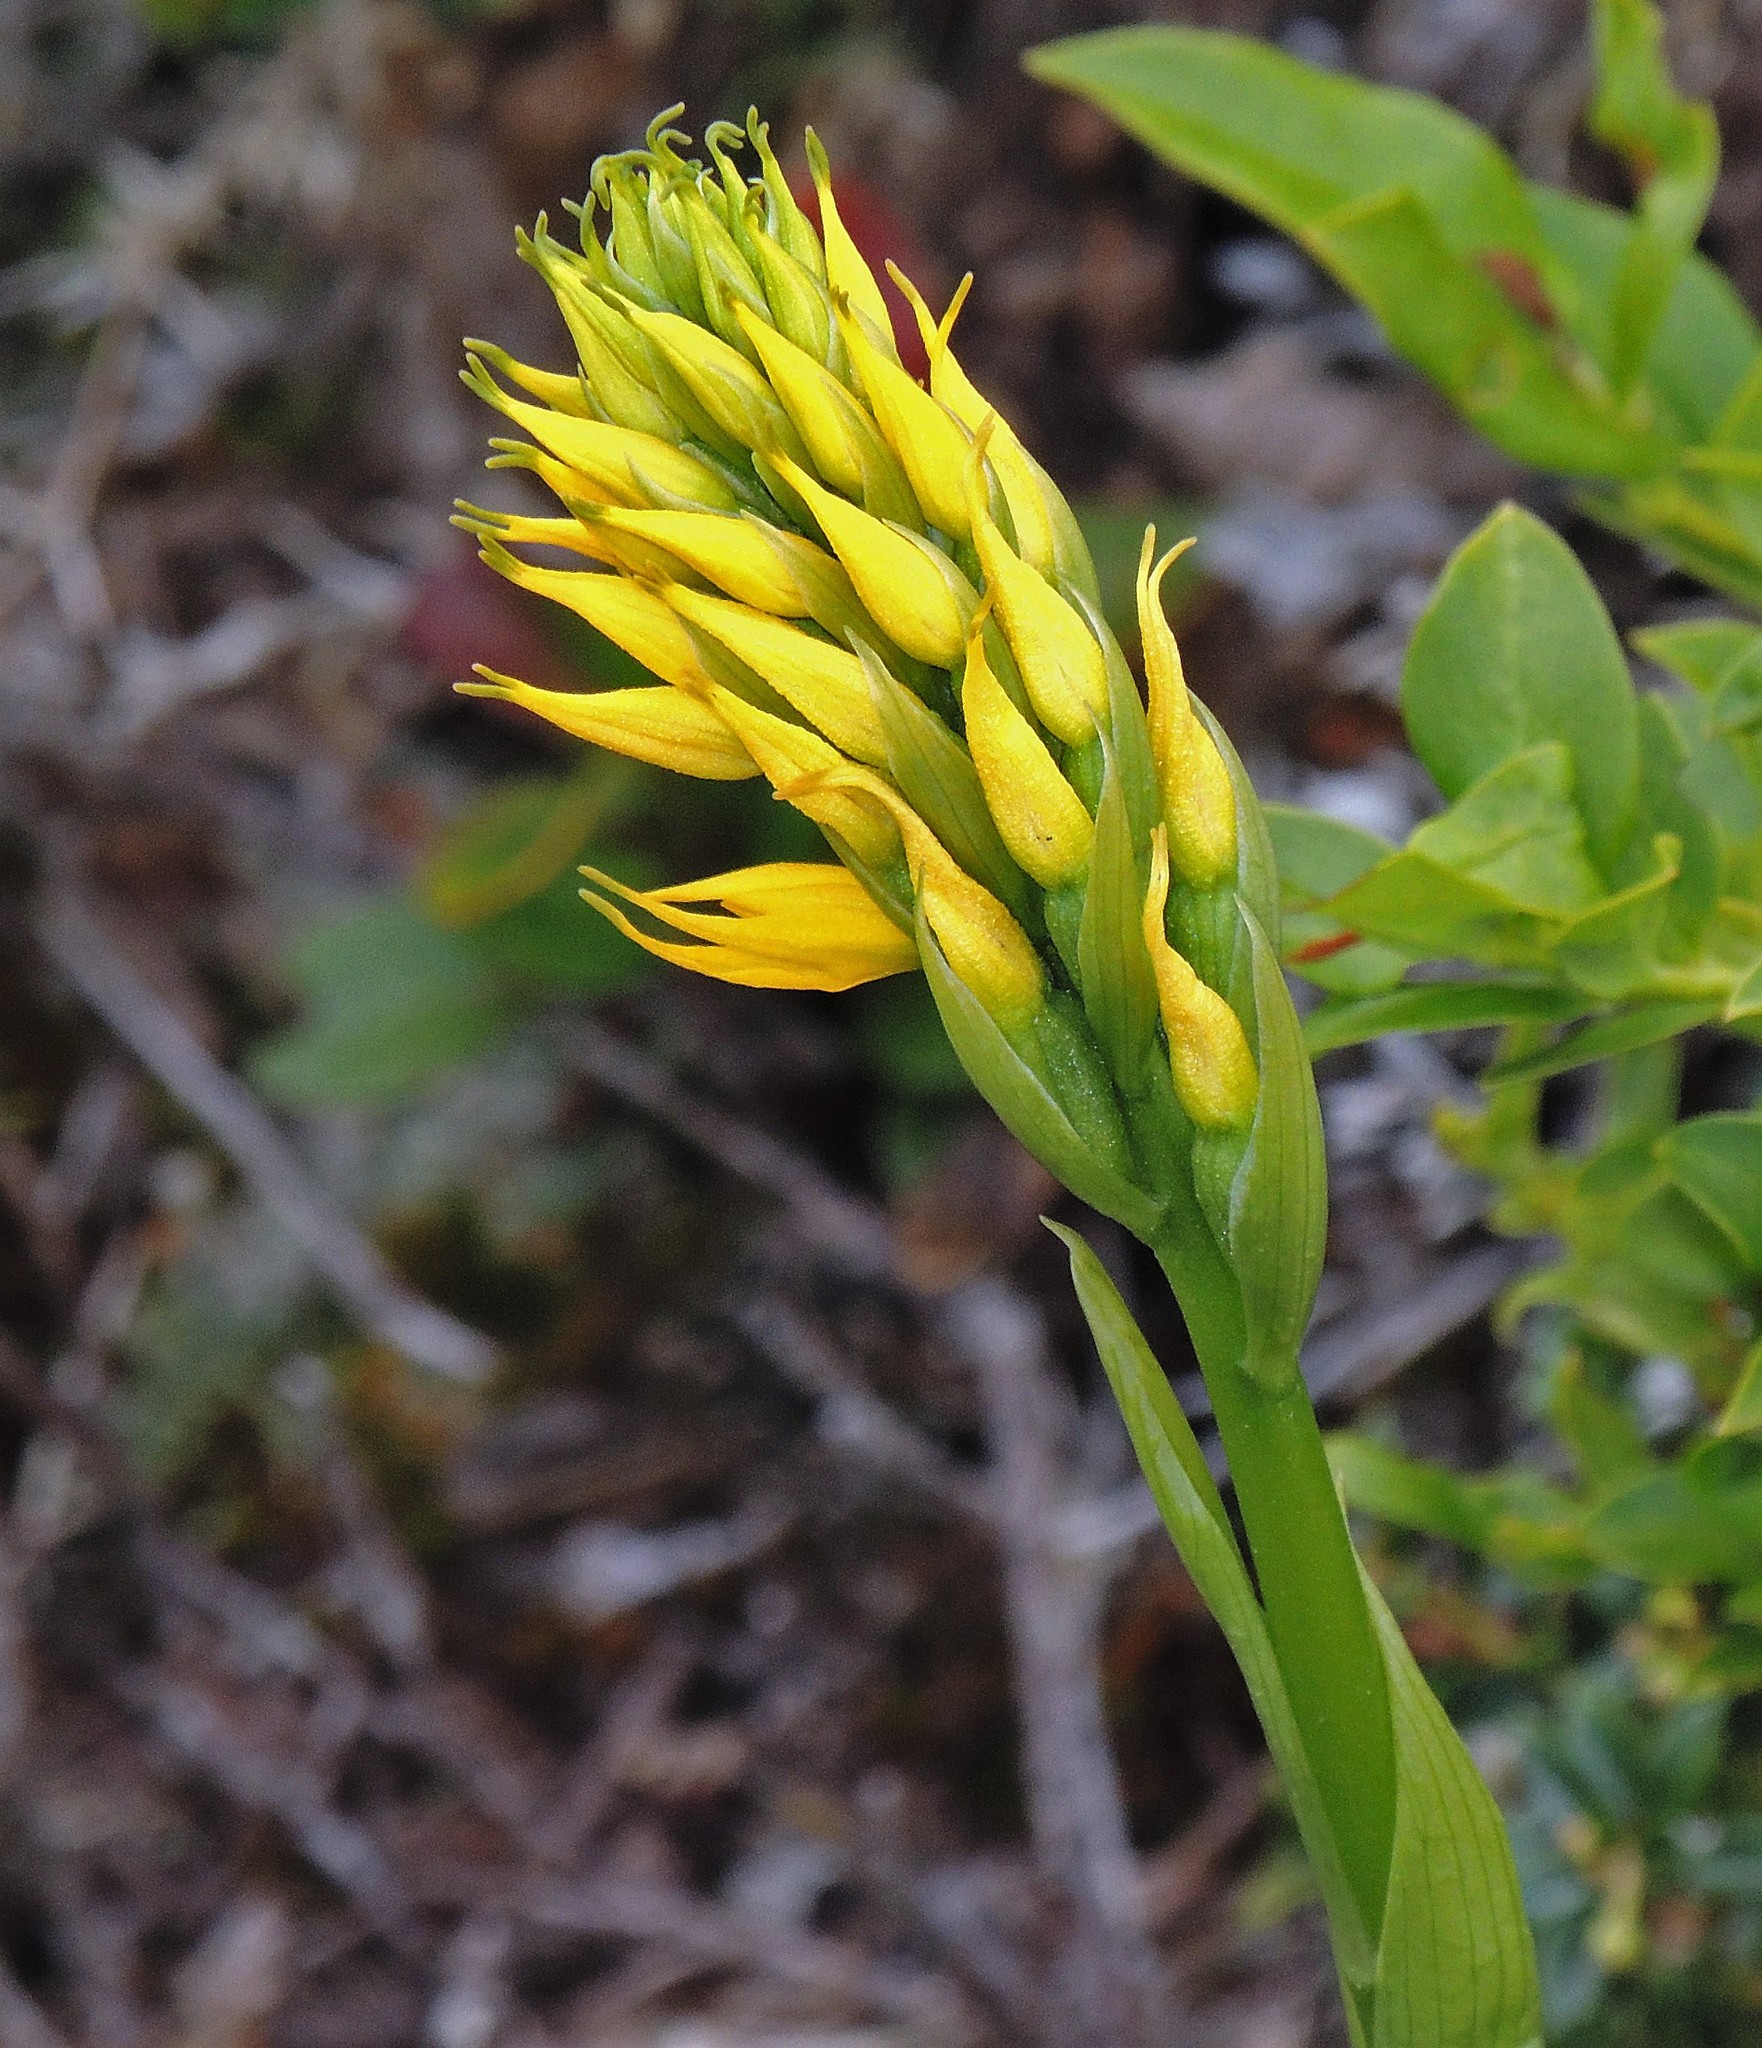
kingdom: Plantae
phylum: Tracheophyta
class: Liliopsida
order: Asparagales
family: Orchidaceae
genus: Gavilea
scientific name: Gavilea lutea
